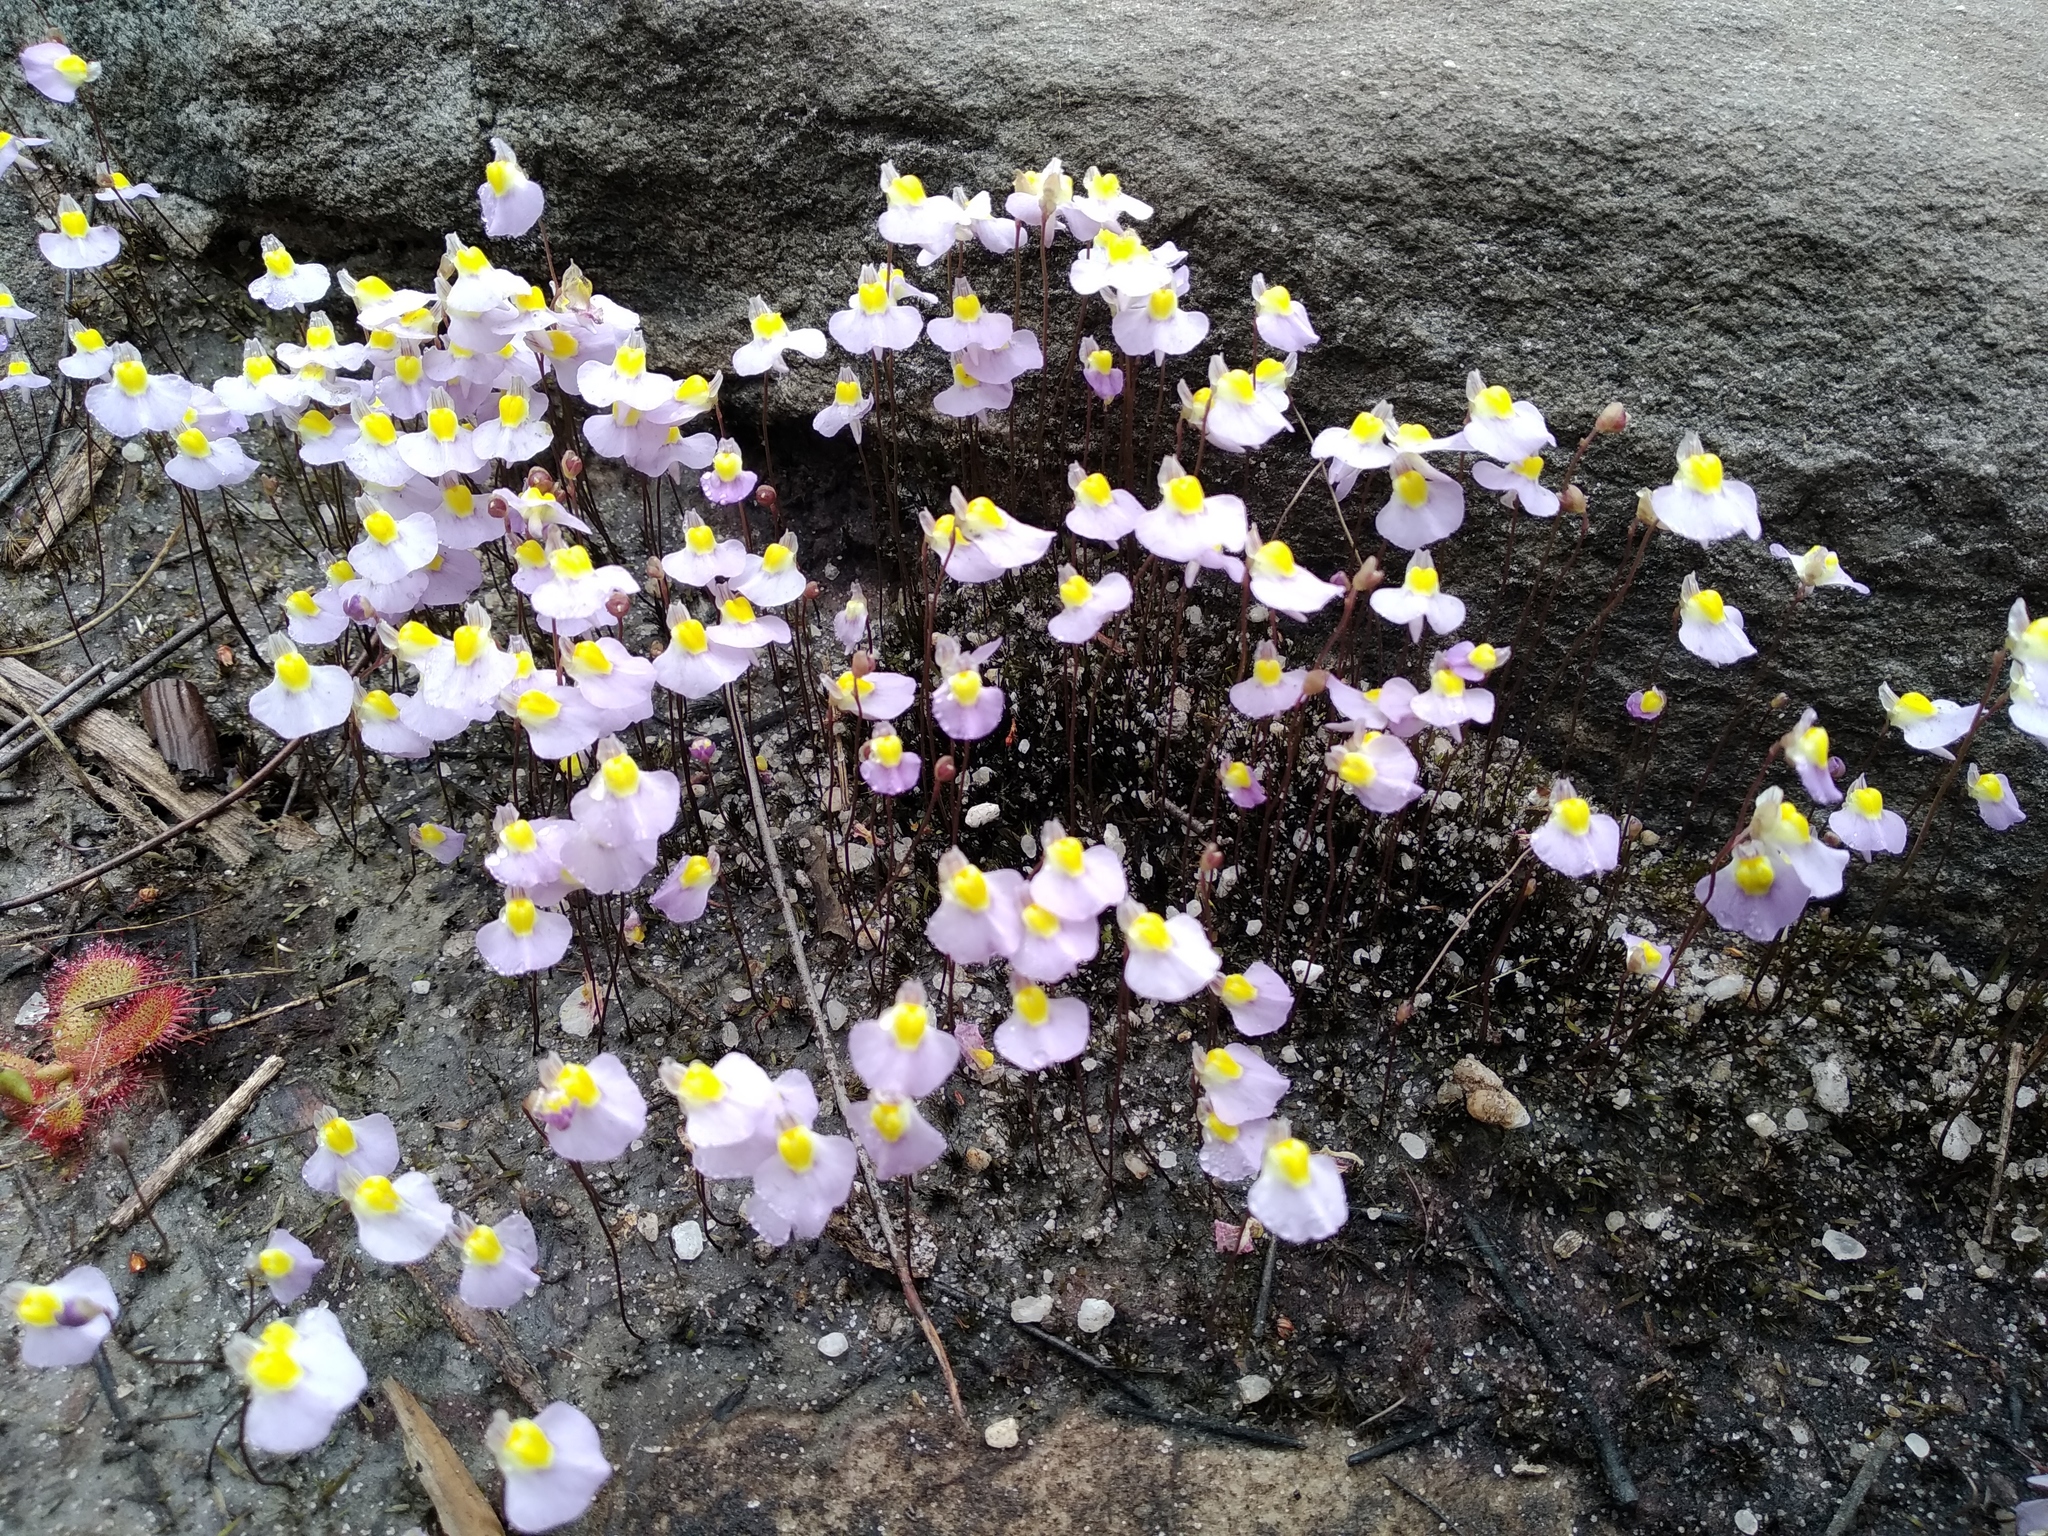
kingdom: Plantae
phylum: Tracheophyta
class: Magnoliopsida
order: Lamiales
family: Lentibulariaceae
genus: Utricularia
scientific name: Utricularia bisquamata
